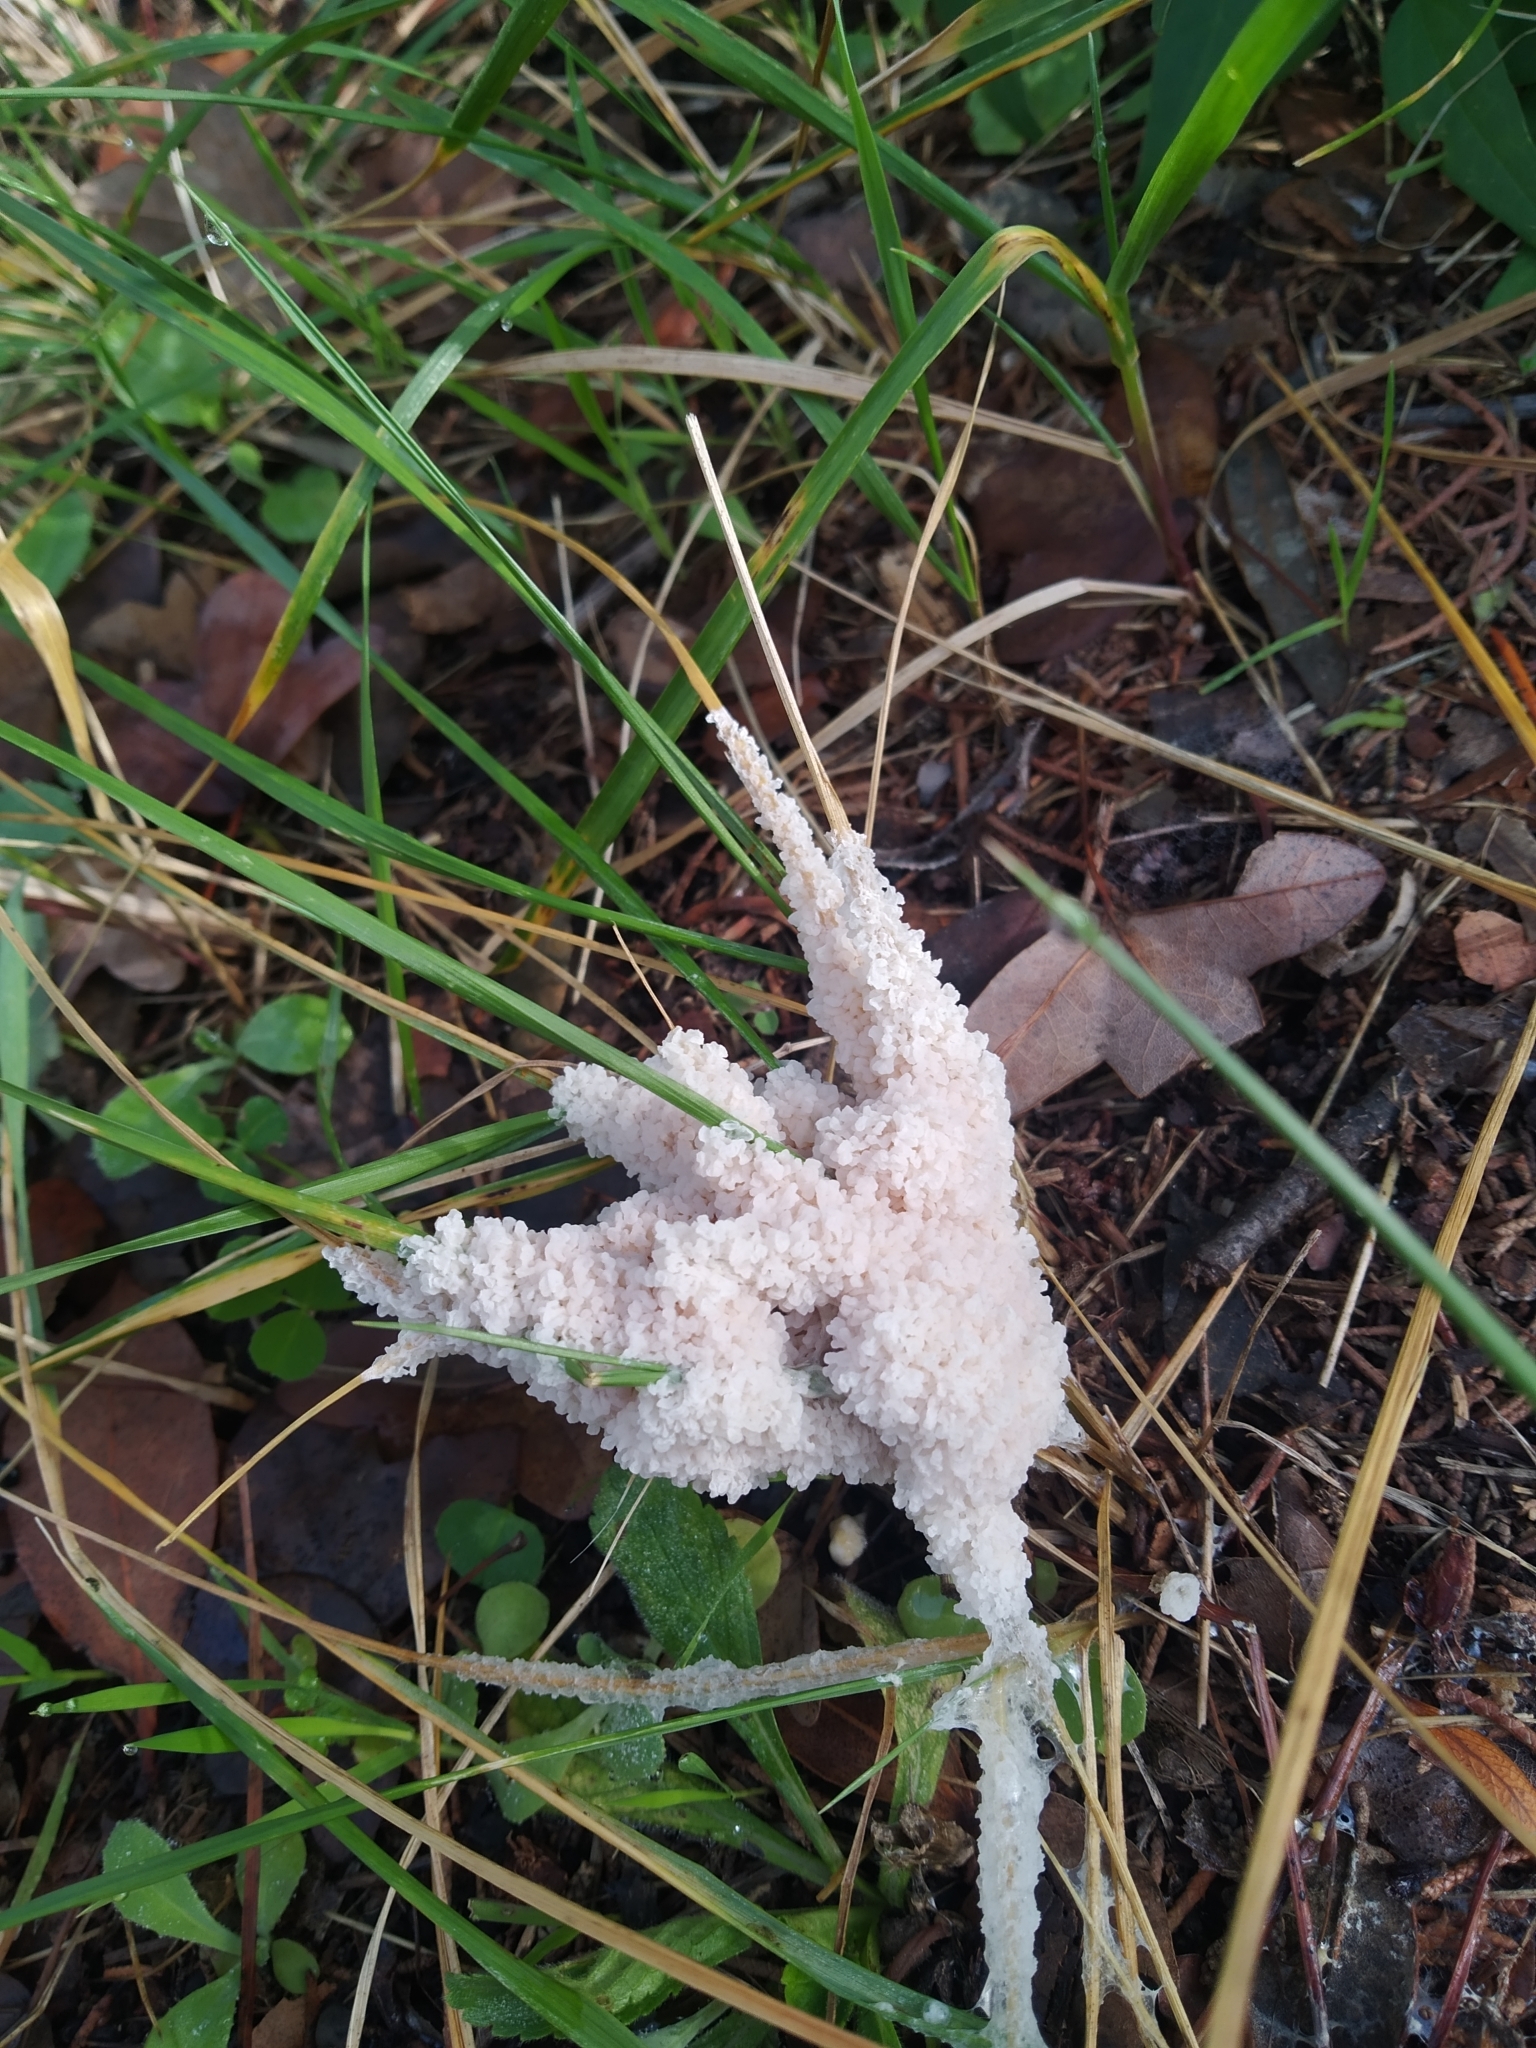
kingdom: Protozoa
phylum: Mycetozoa
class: Myxomycetes
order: Physarales
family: Physaraceae
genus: Didymium
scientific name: Didymium
